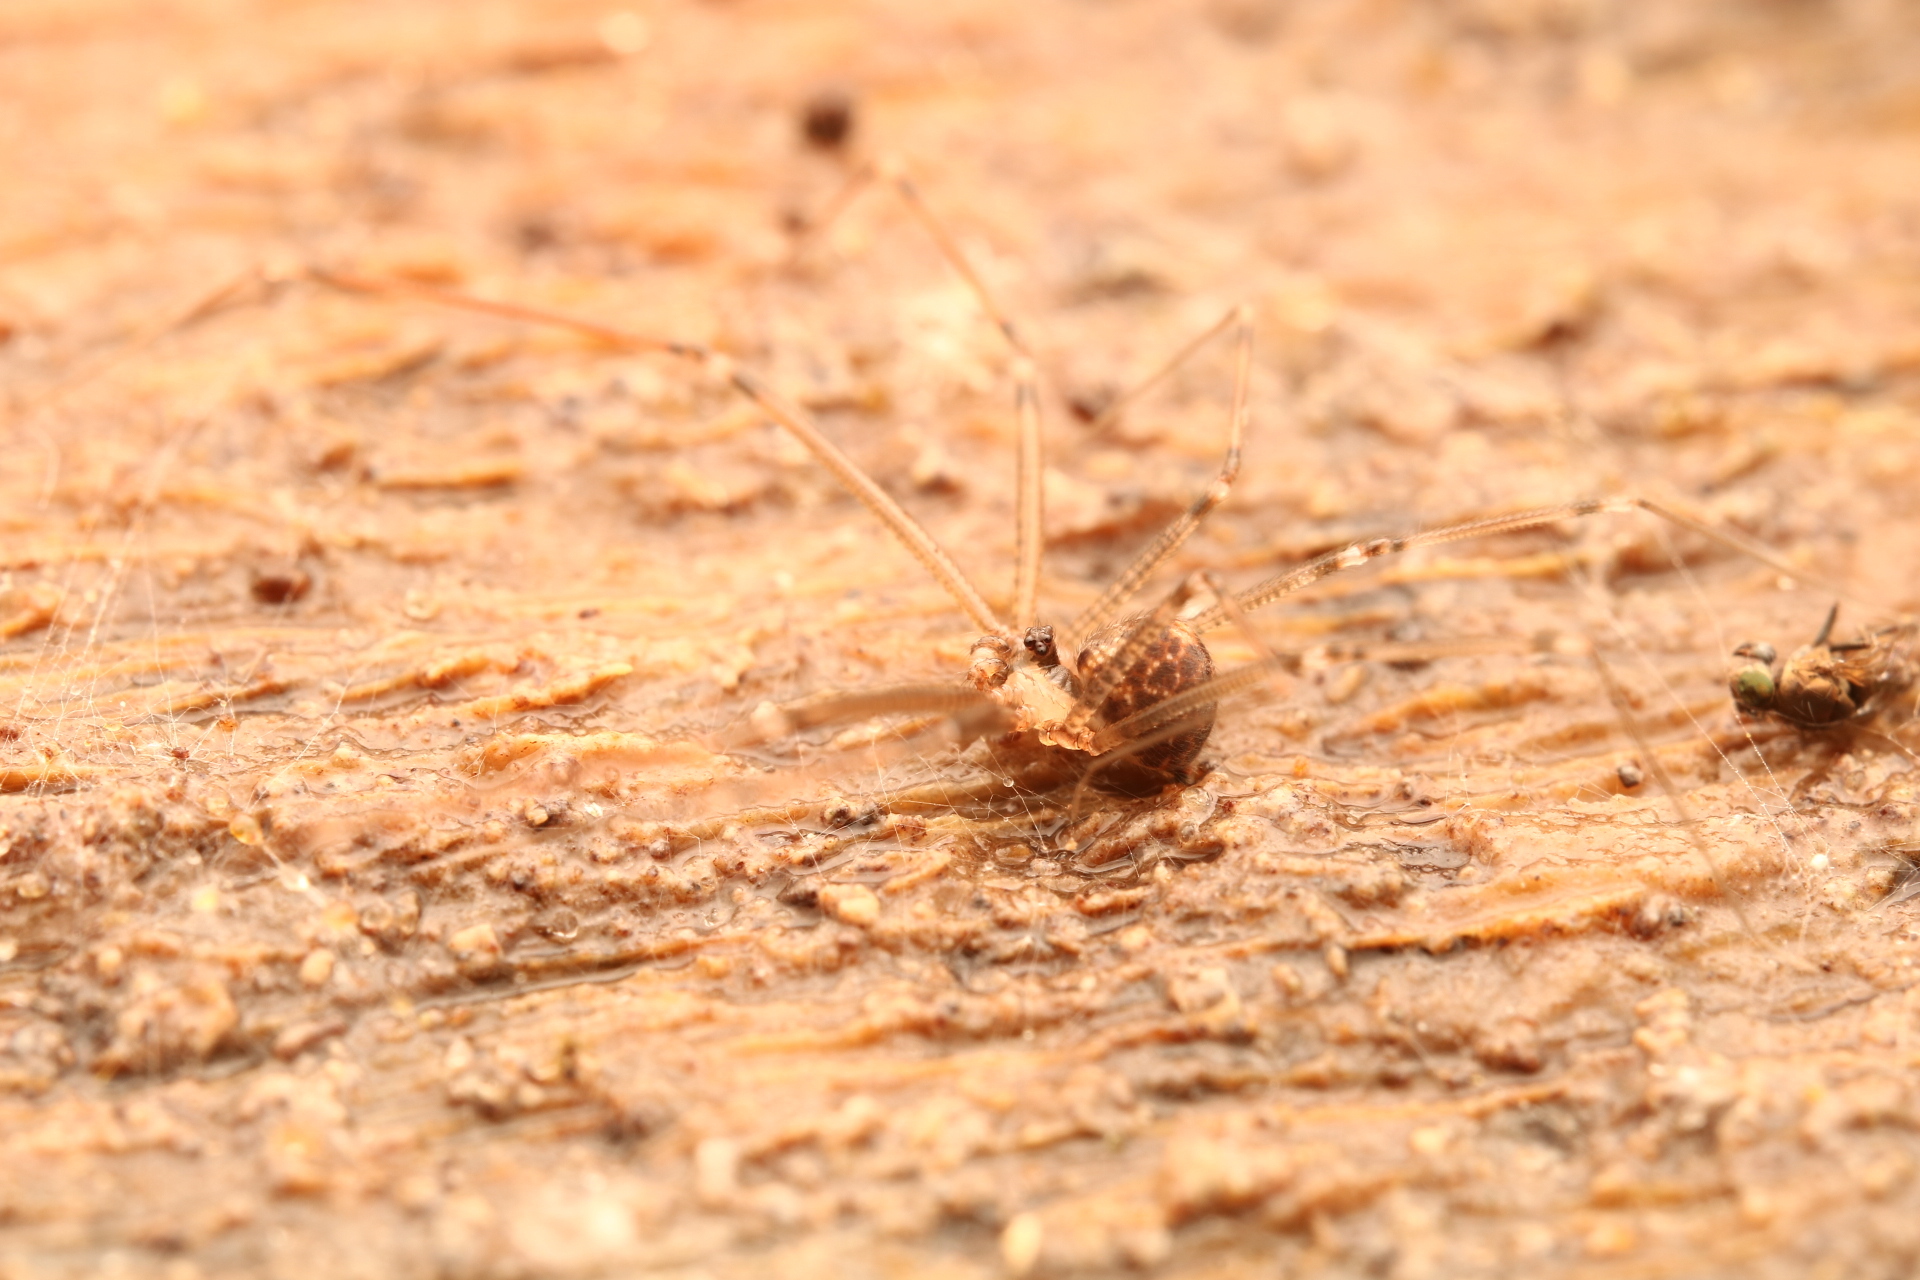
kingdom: Animalia
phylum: Arthropoda
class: Arachnida
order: Araneae
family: Pholcidae
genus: Modisimus
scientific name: Modisimus texanus
